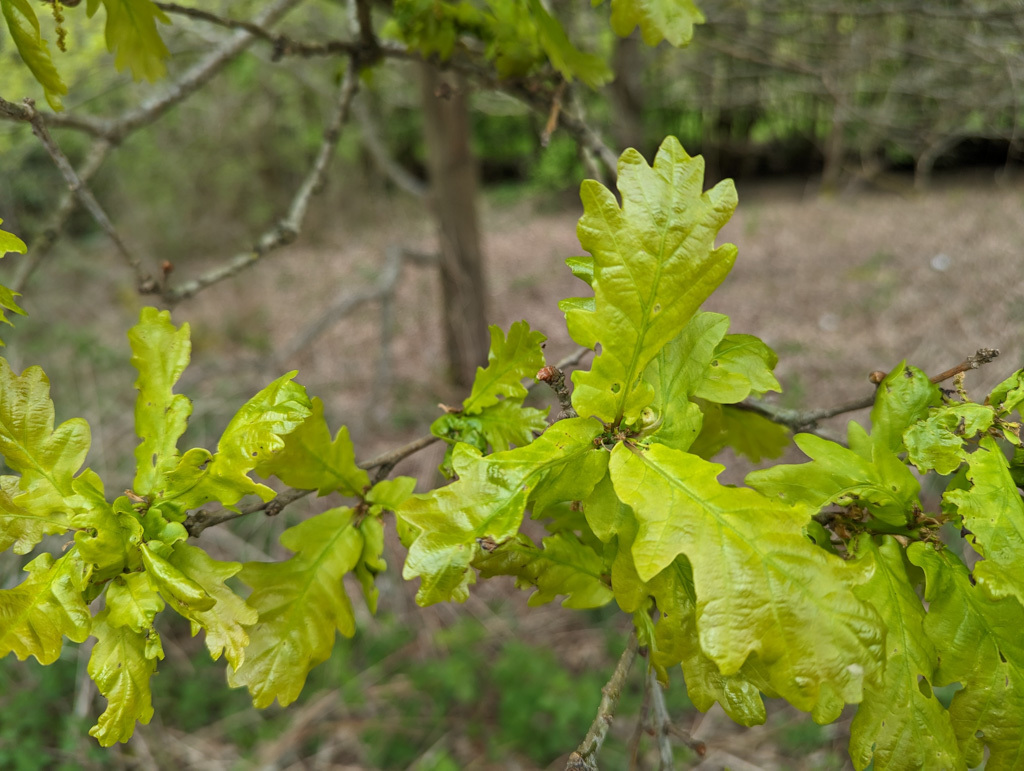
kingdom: Plantae
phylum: Tracheophyta
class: Magnoliopsida
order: Fagales
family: Fagaceae
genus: Quercus
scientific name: Quercus robur
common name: Pedunculate oak
